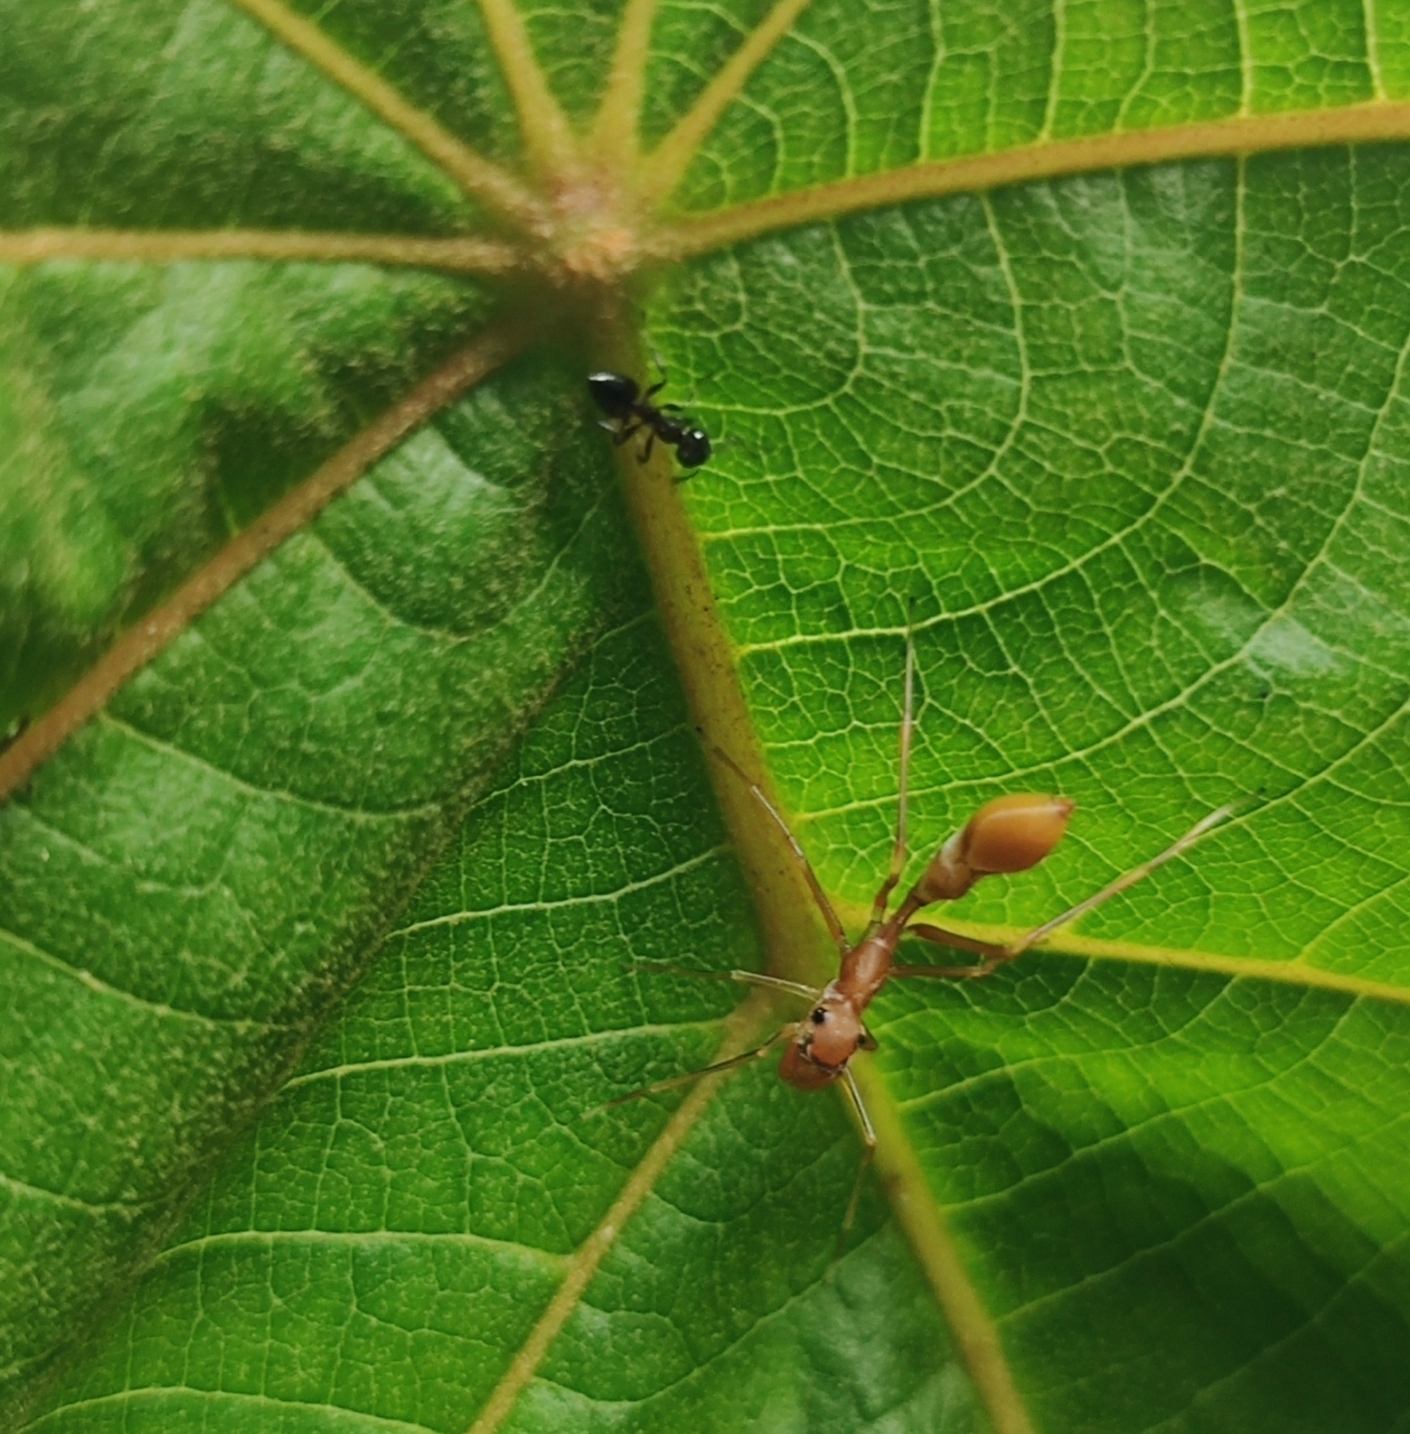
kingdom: Animalia
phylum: Arthropoda
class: Arachnida
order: Araneae
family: Salticidae
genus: Myrmaplata
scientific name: Myrmaplata plataleoides
